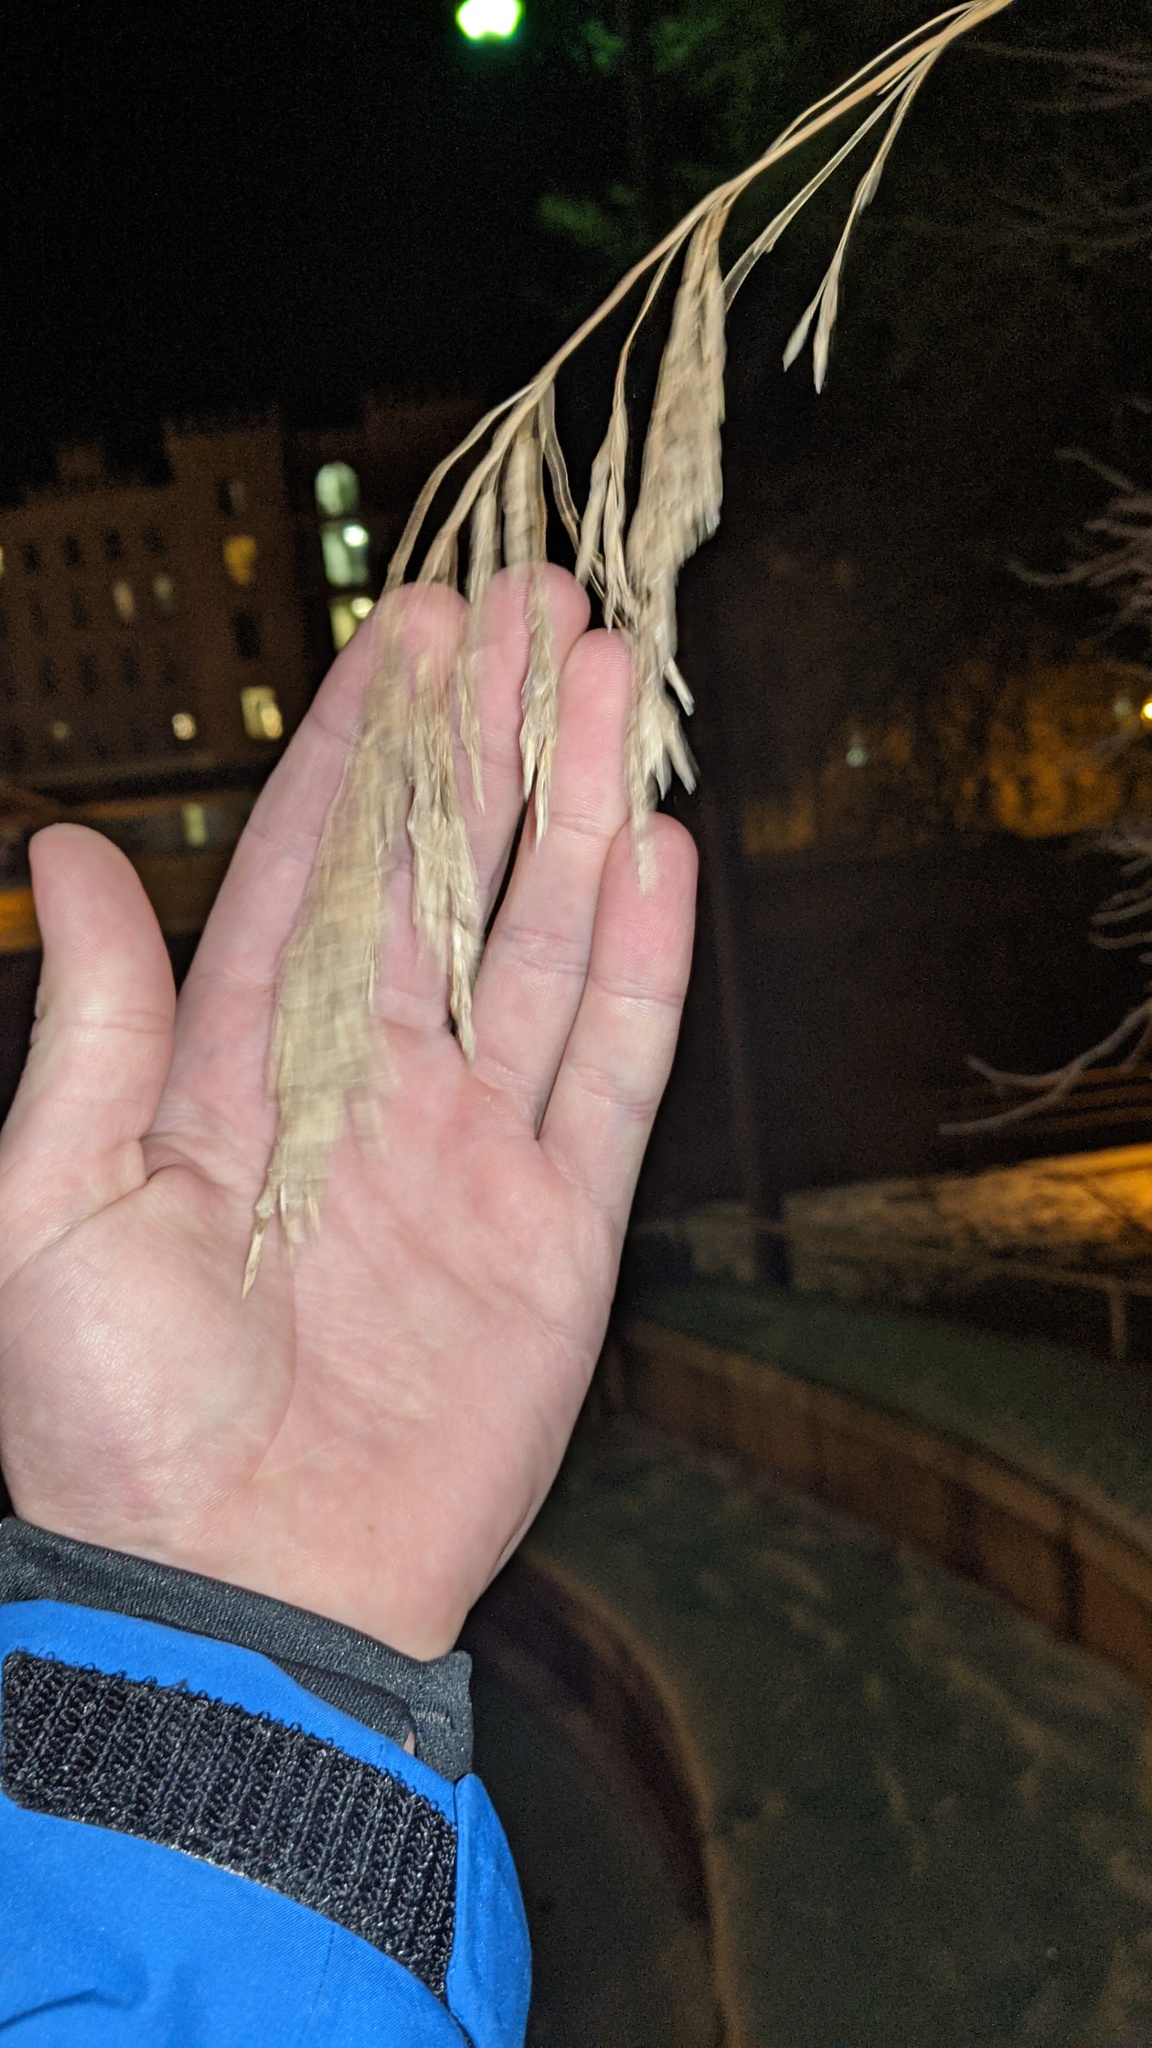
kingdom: Plantae
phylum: Tracheophyta
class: Liliopsida
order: Poales
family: Poaceae
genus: Bromus
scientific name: Bromus inermis
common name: Smooth brome
